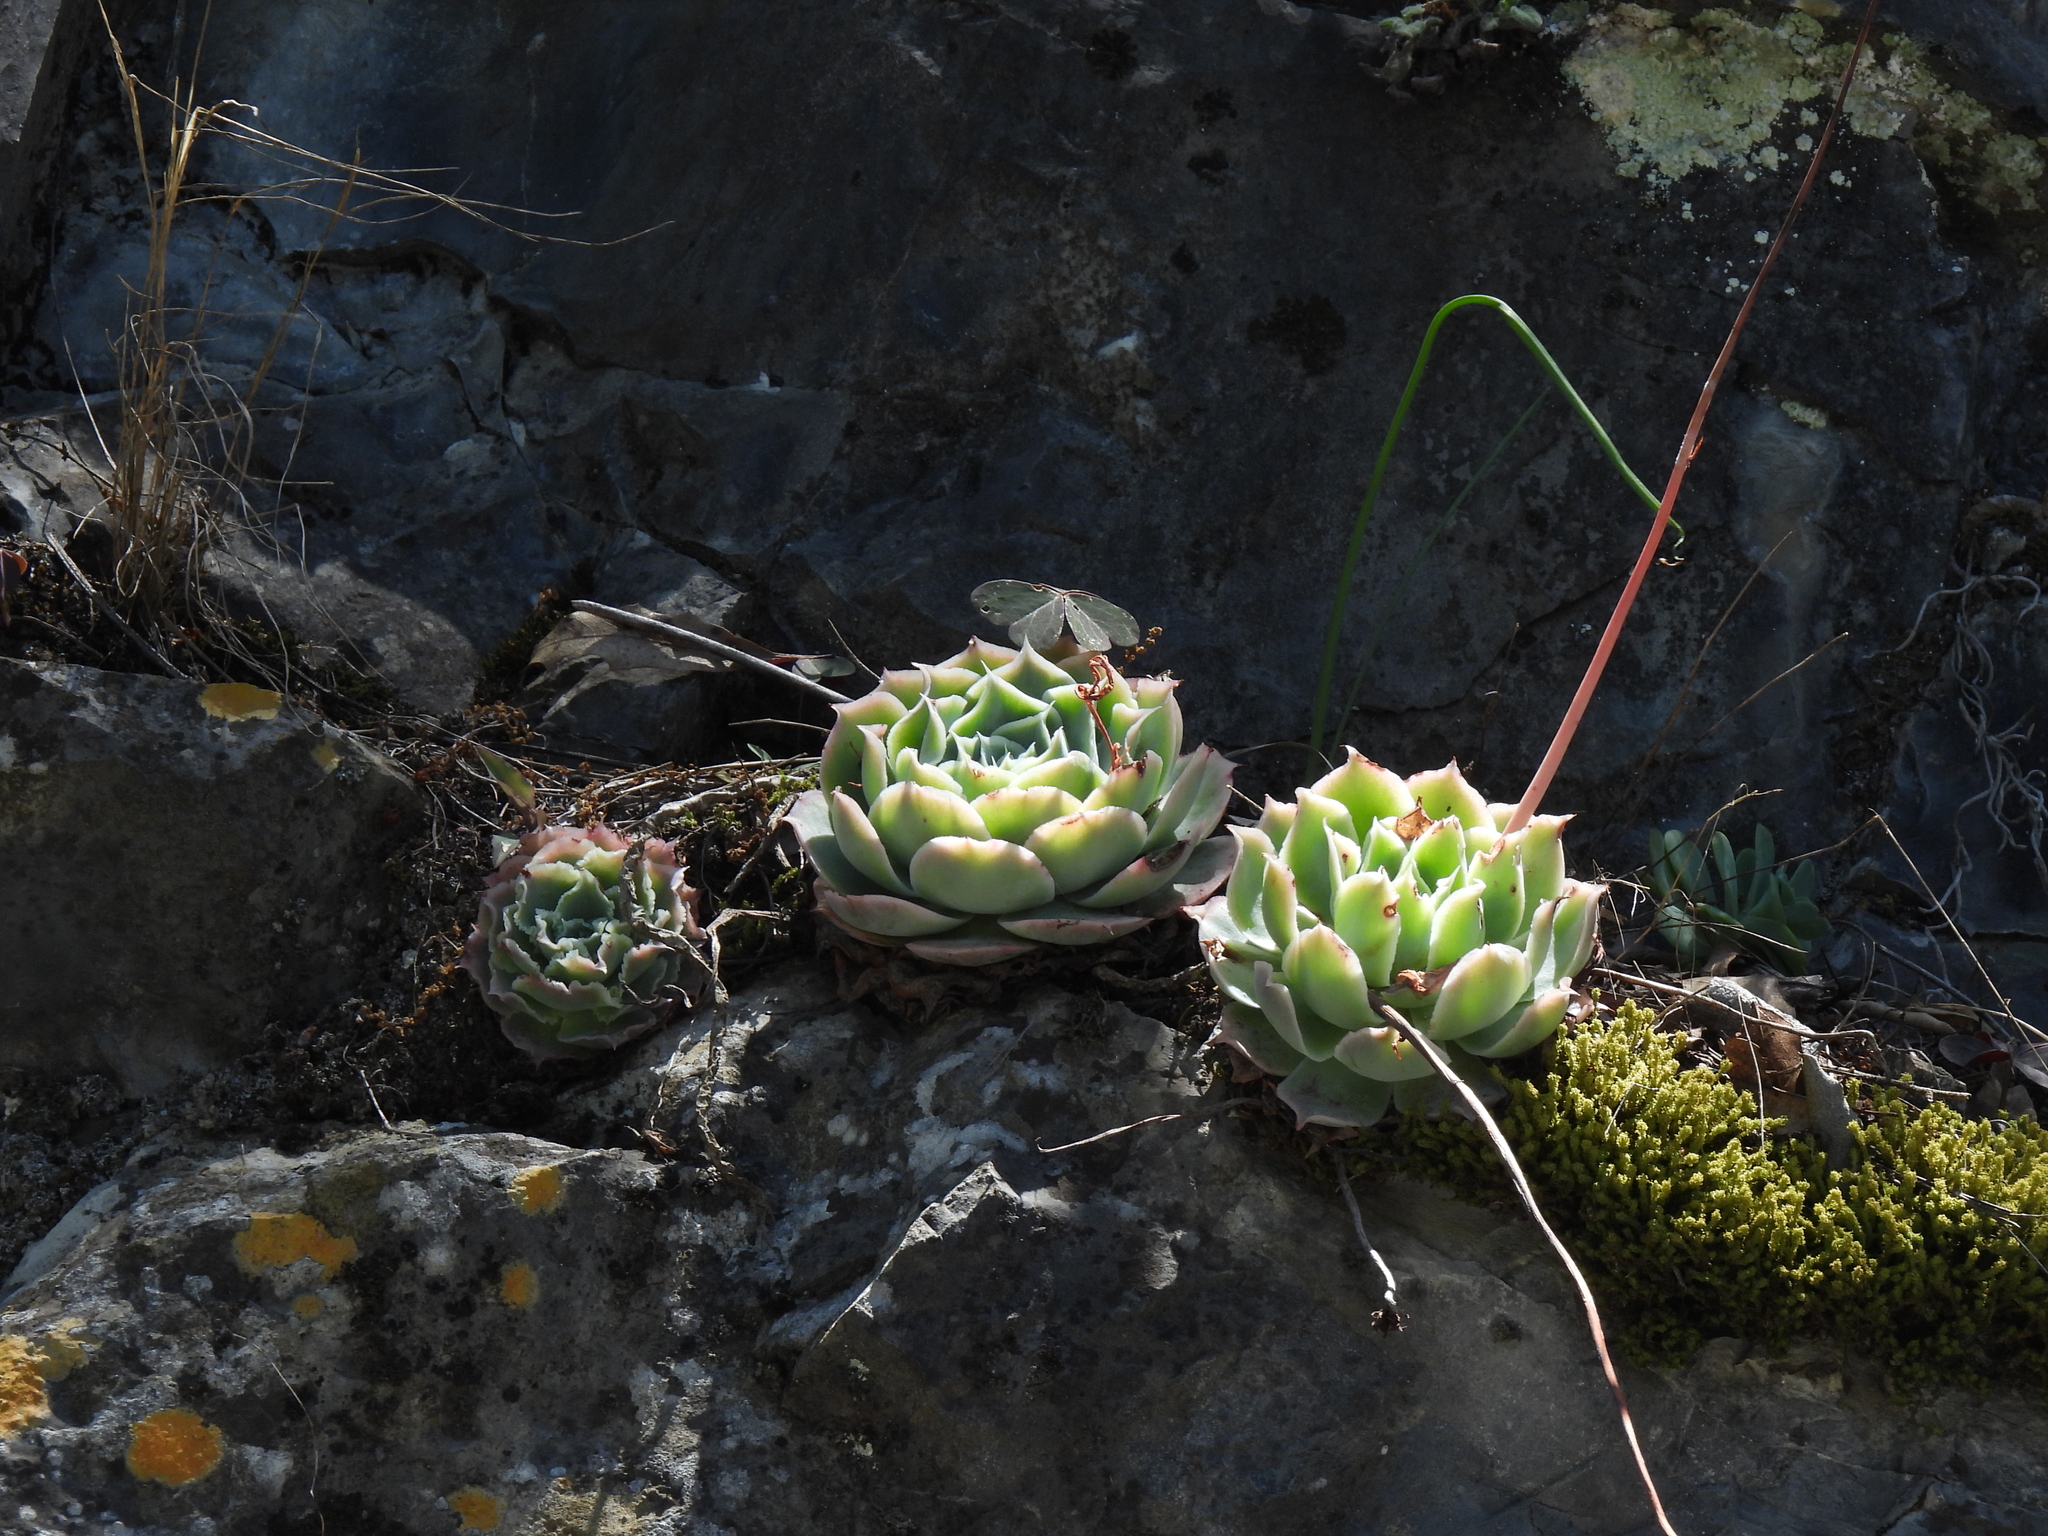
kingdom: Plantae
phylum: Tracheophyta
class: Magnoliopsida
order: Saxifragales
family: Crassulaceae
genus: Echeveria
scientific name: Echeveria simulans
